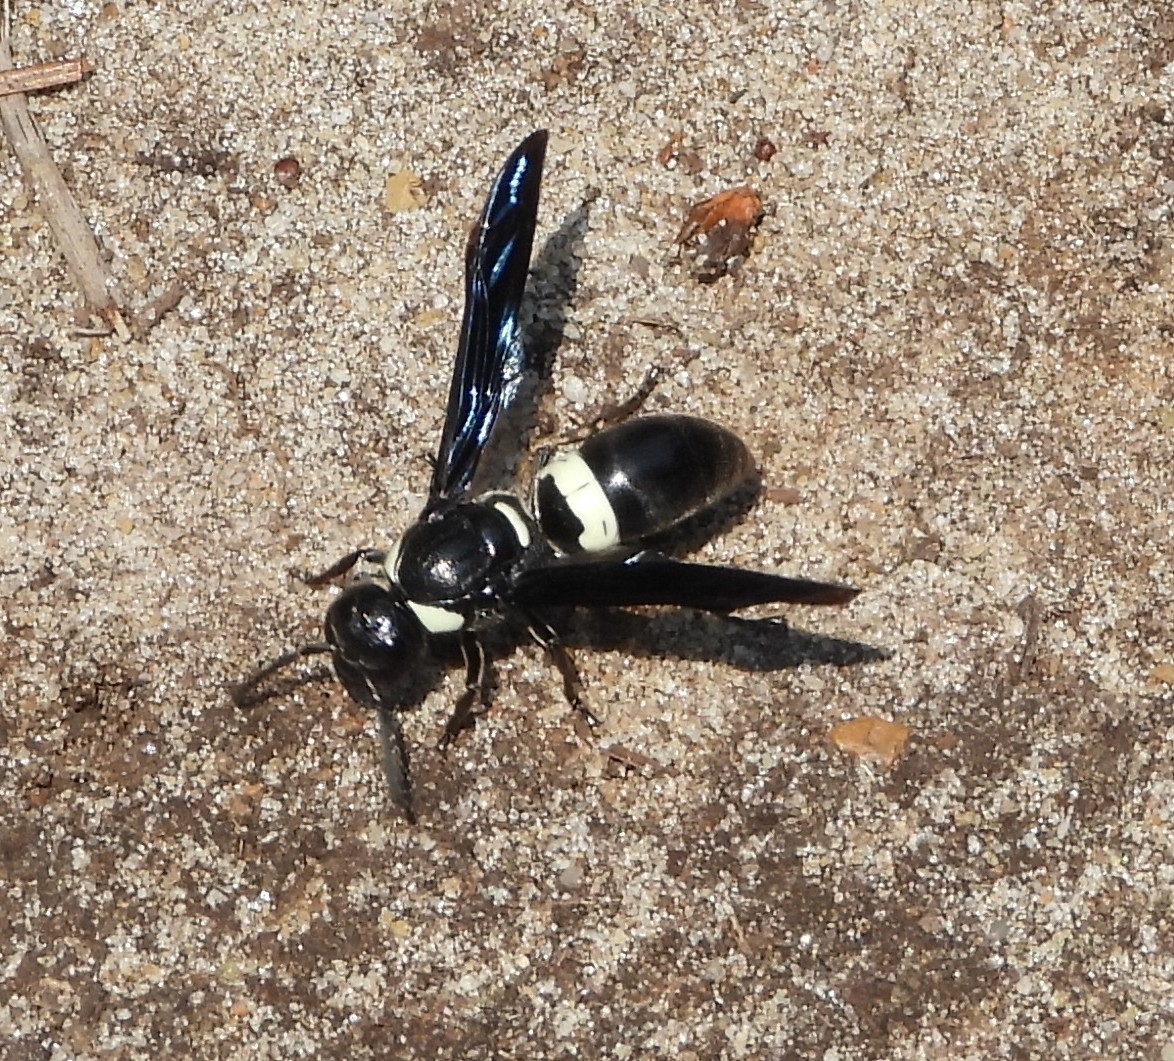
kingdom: Animalia
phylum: Arthropoda
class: Insecta
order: Hymenoptera
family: Eumenidae
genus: Monobia
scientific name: Monobia quadridens
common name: Four-toothed mason wasp
